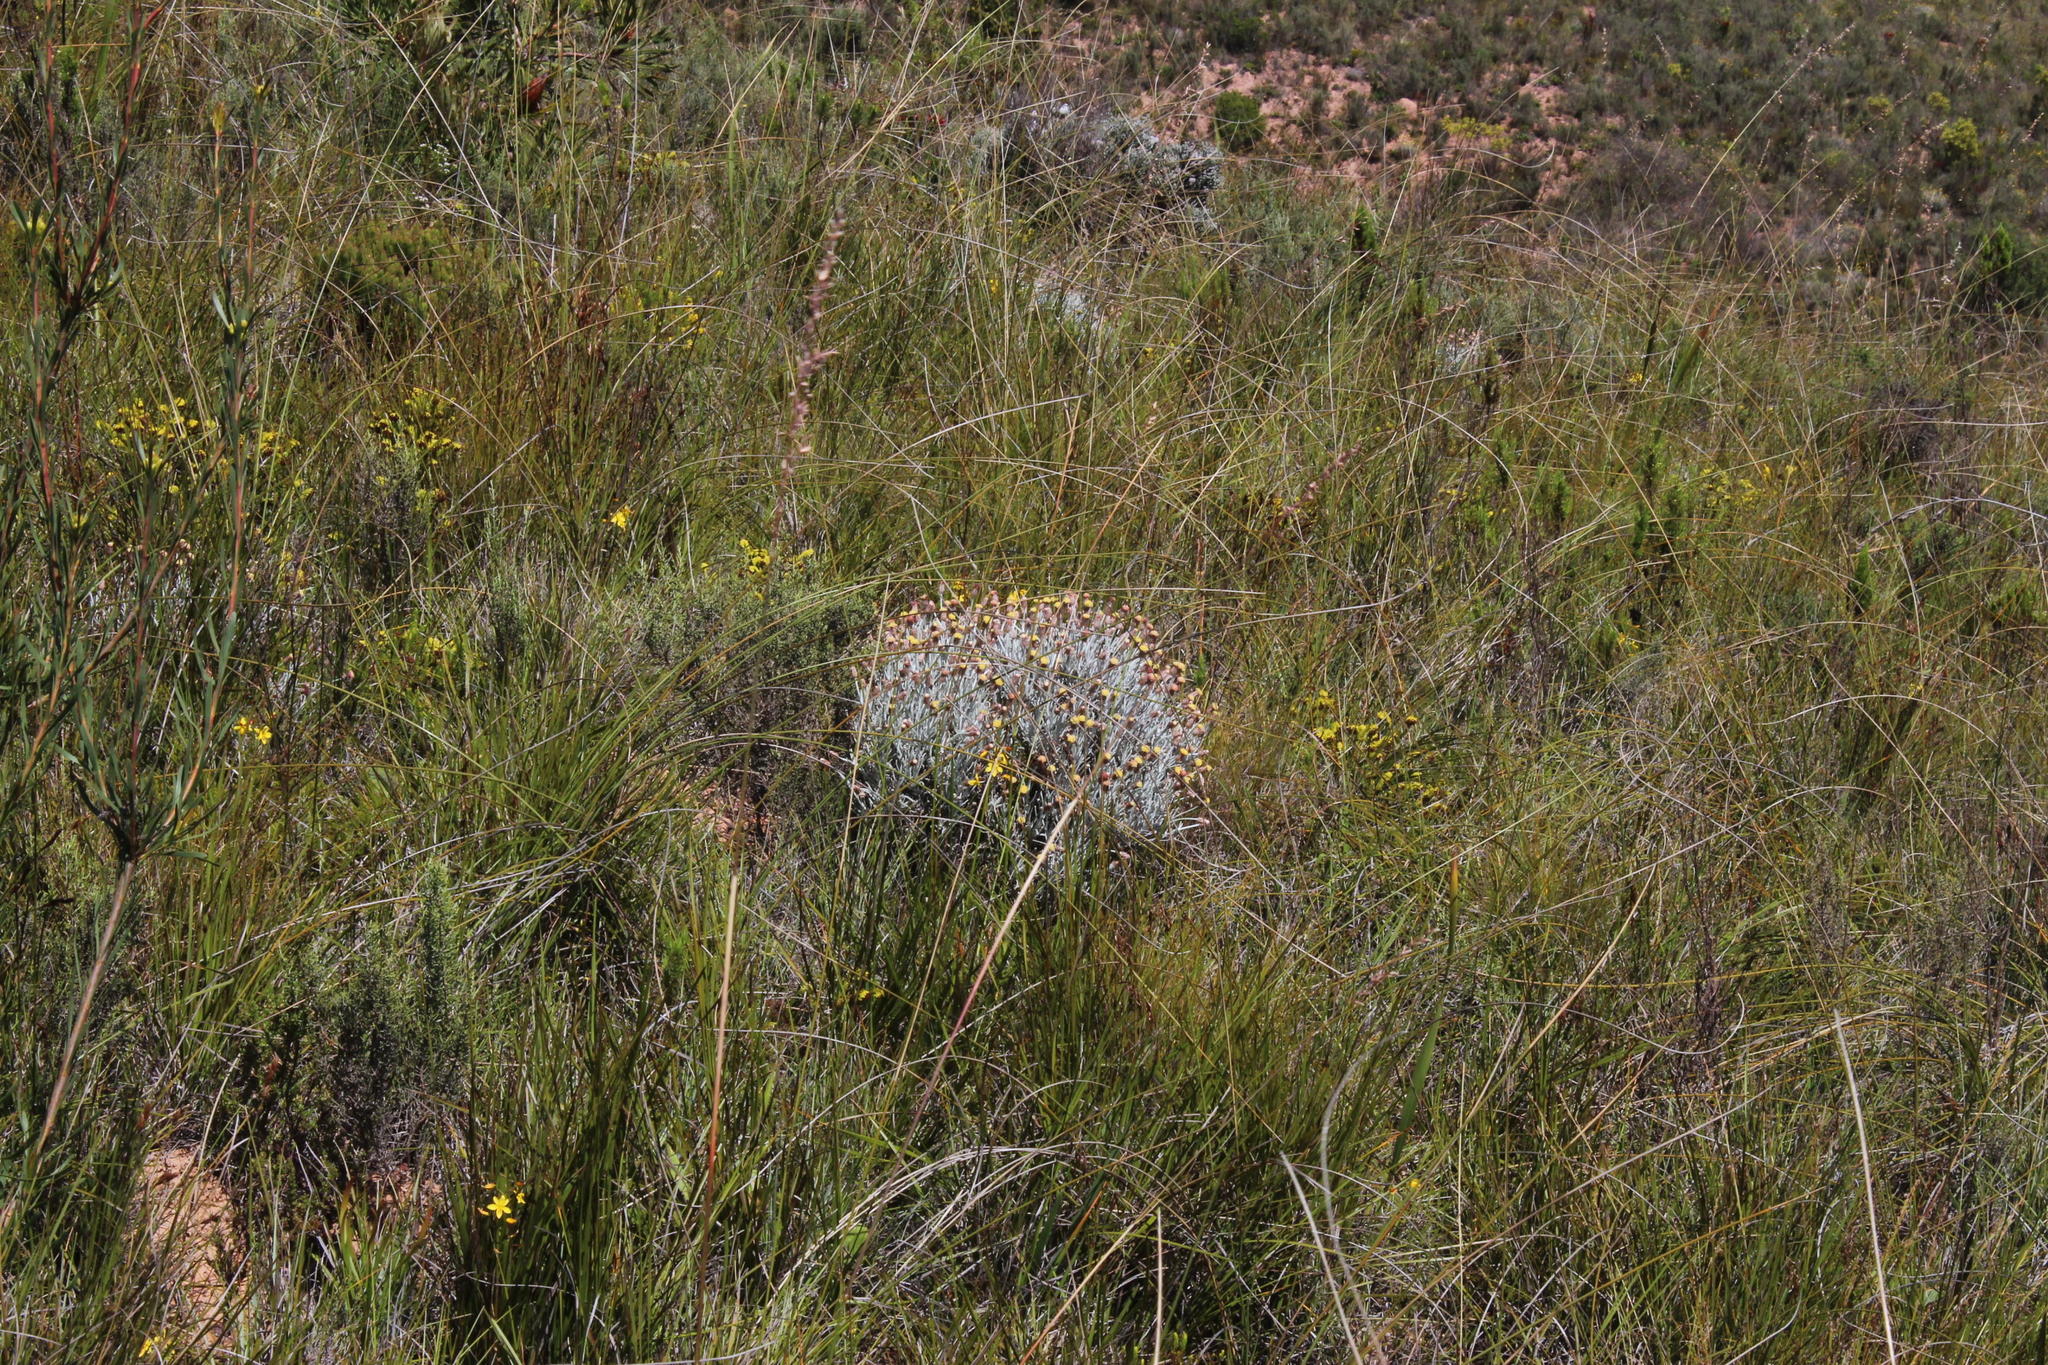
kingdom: Plantae
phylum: Tracheophyta
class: Magnoliopsida
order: Asterales
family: Asteraceae
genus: Syncarpha
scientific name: Syncarpha gnaphaloides
